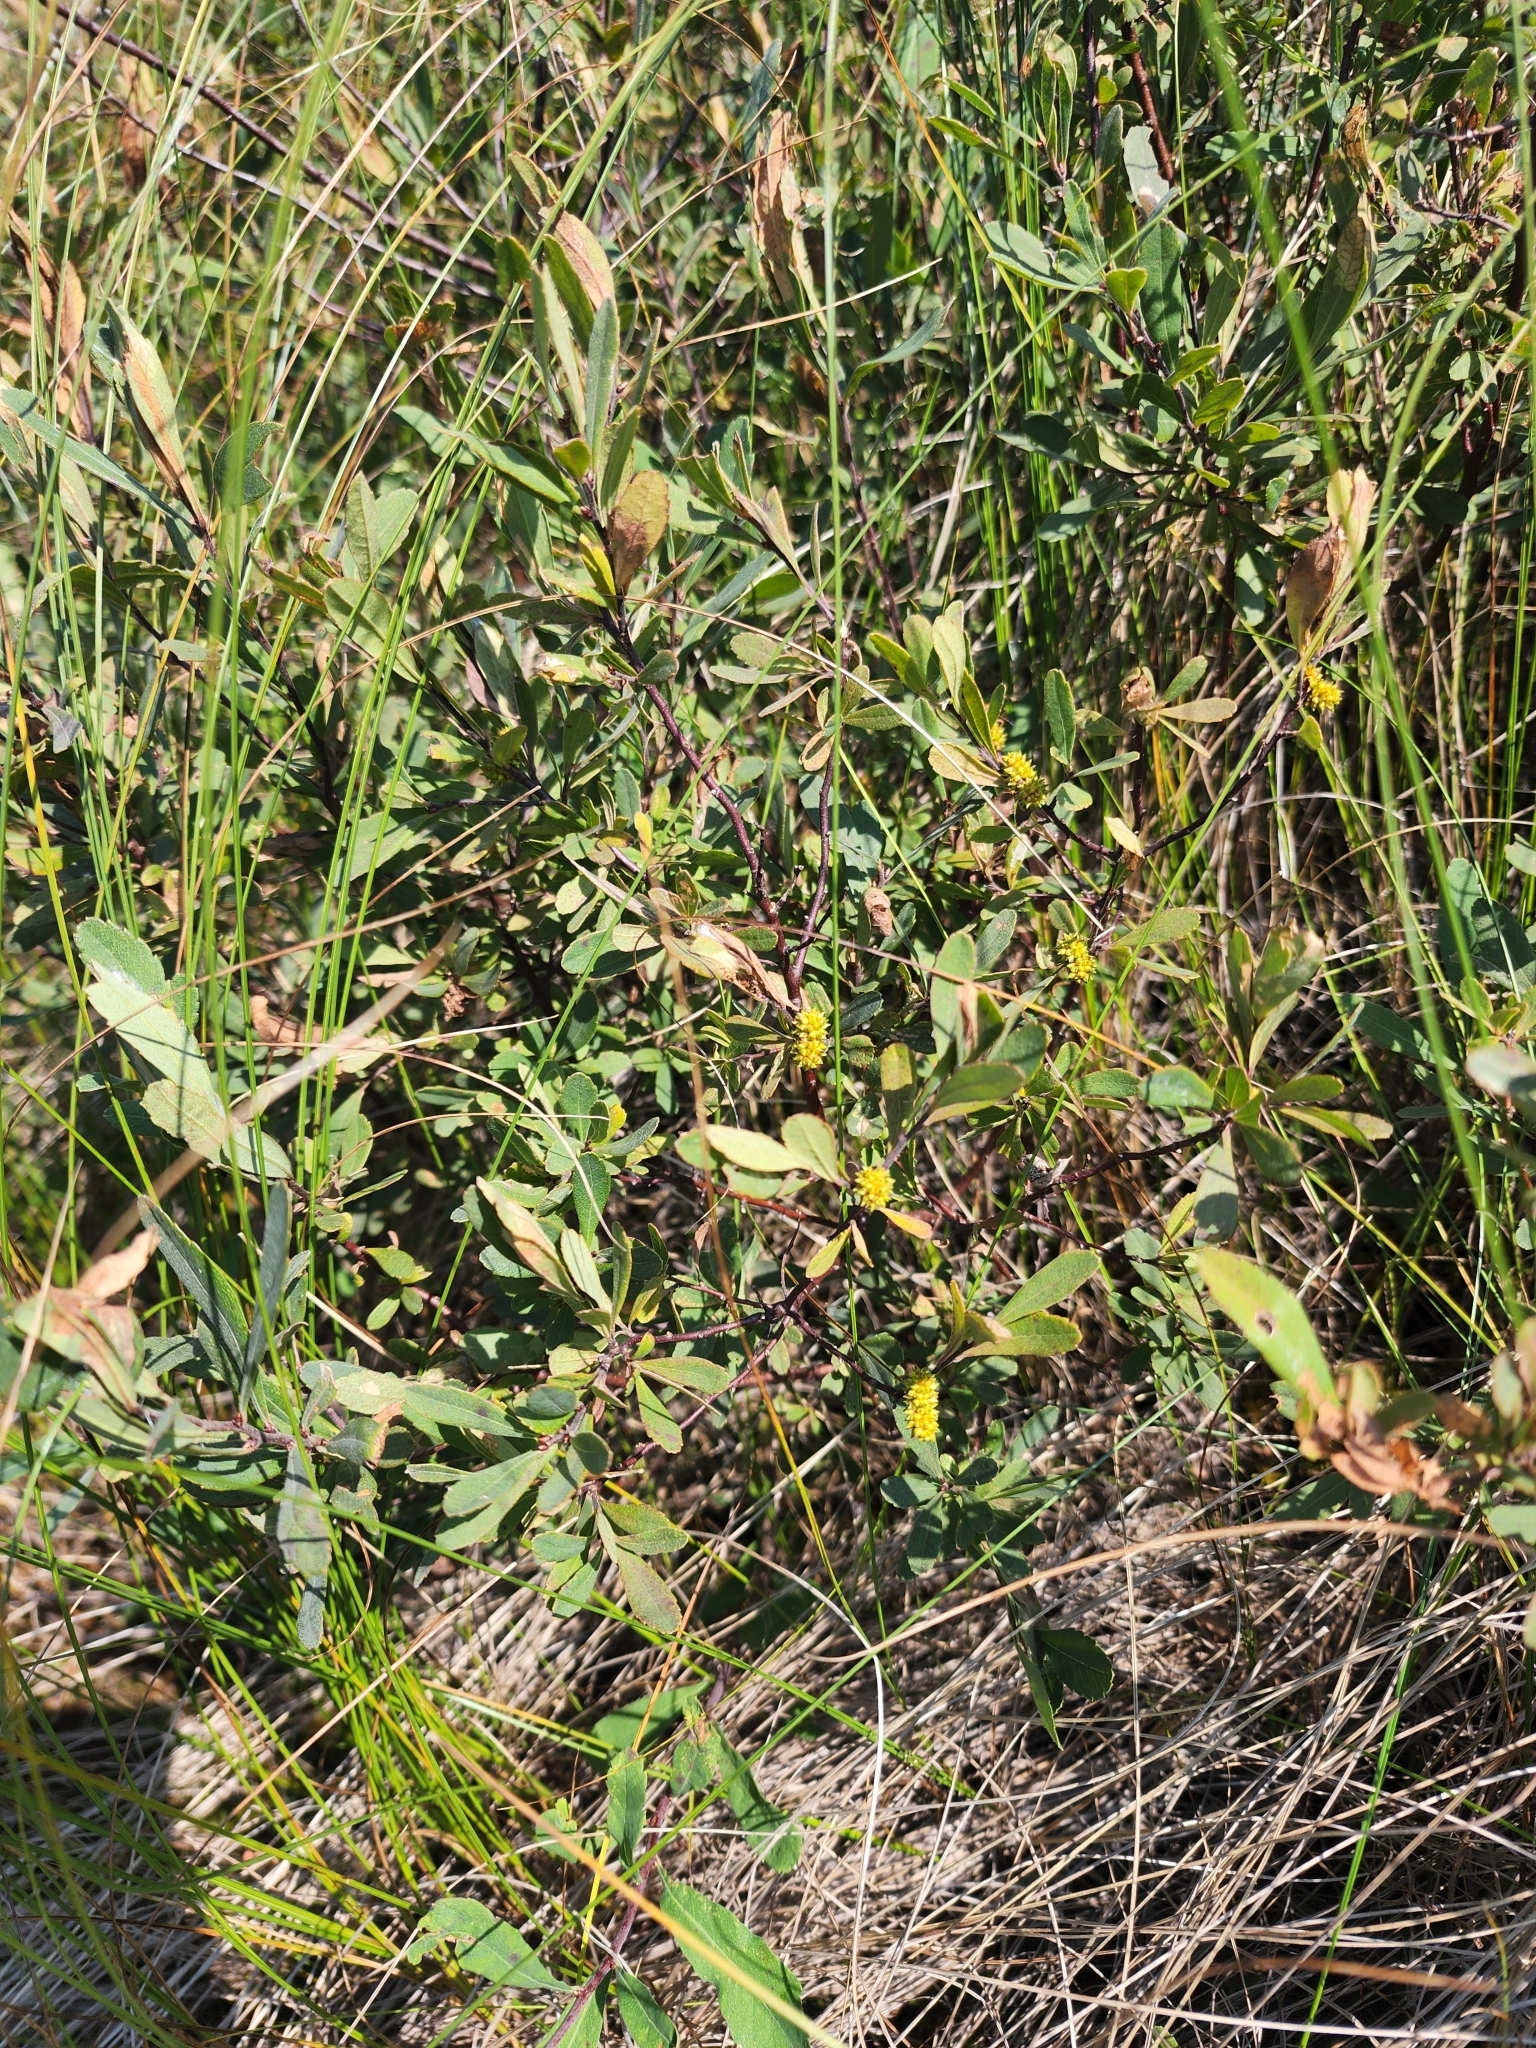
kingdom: Plantae
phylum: Tracheophyta
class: Magnoliopsida
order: Fagales
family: Myricaceae
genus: Myrica
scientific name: Myrica gale
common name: Sweet gale
